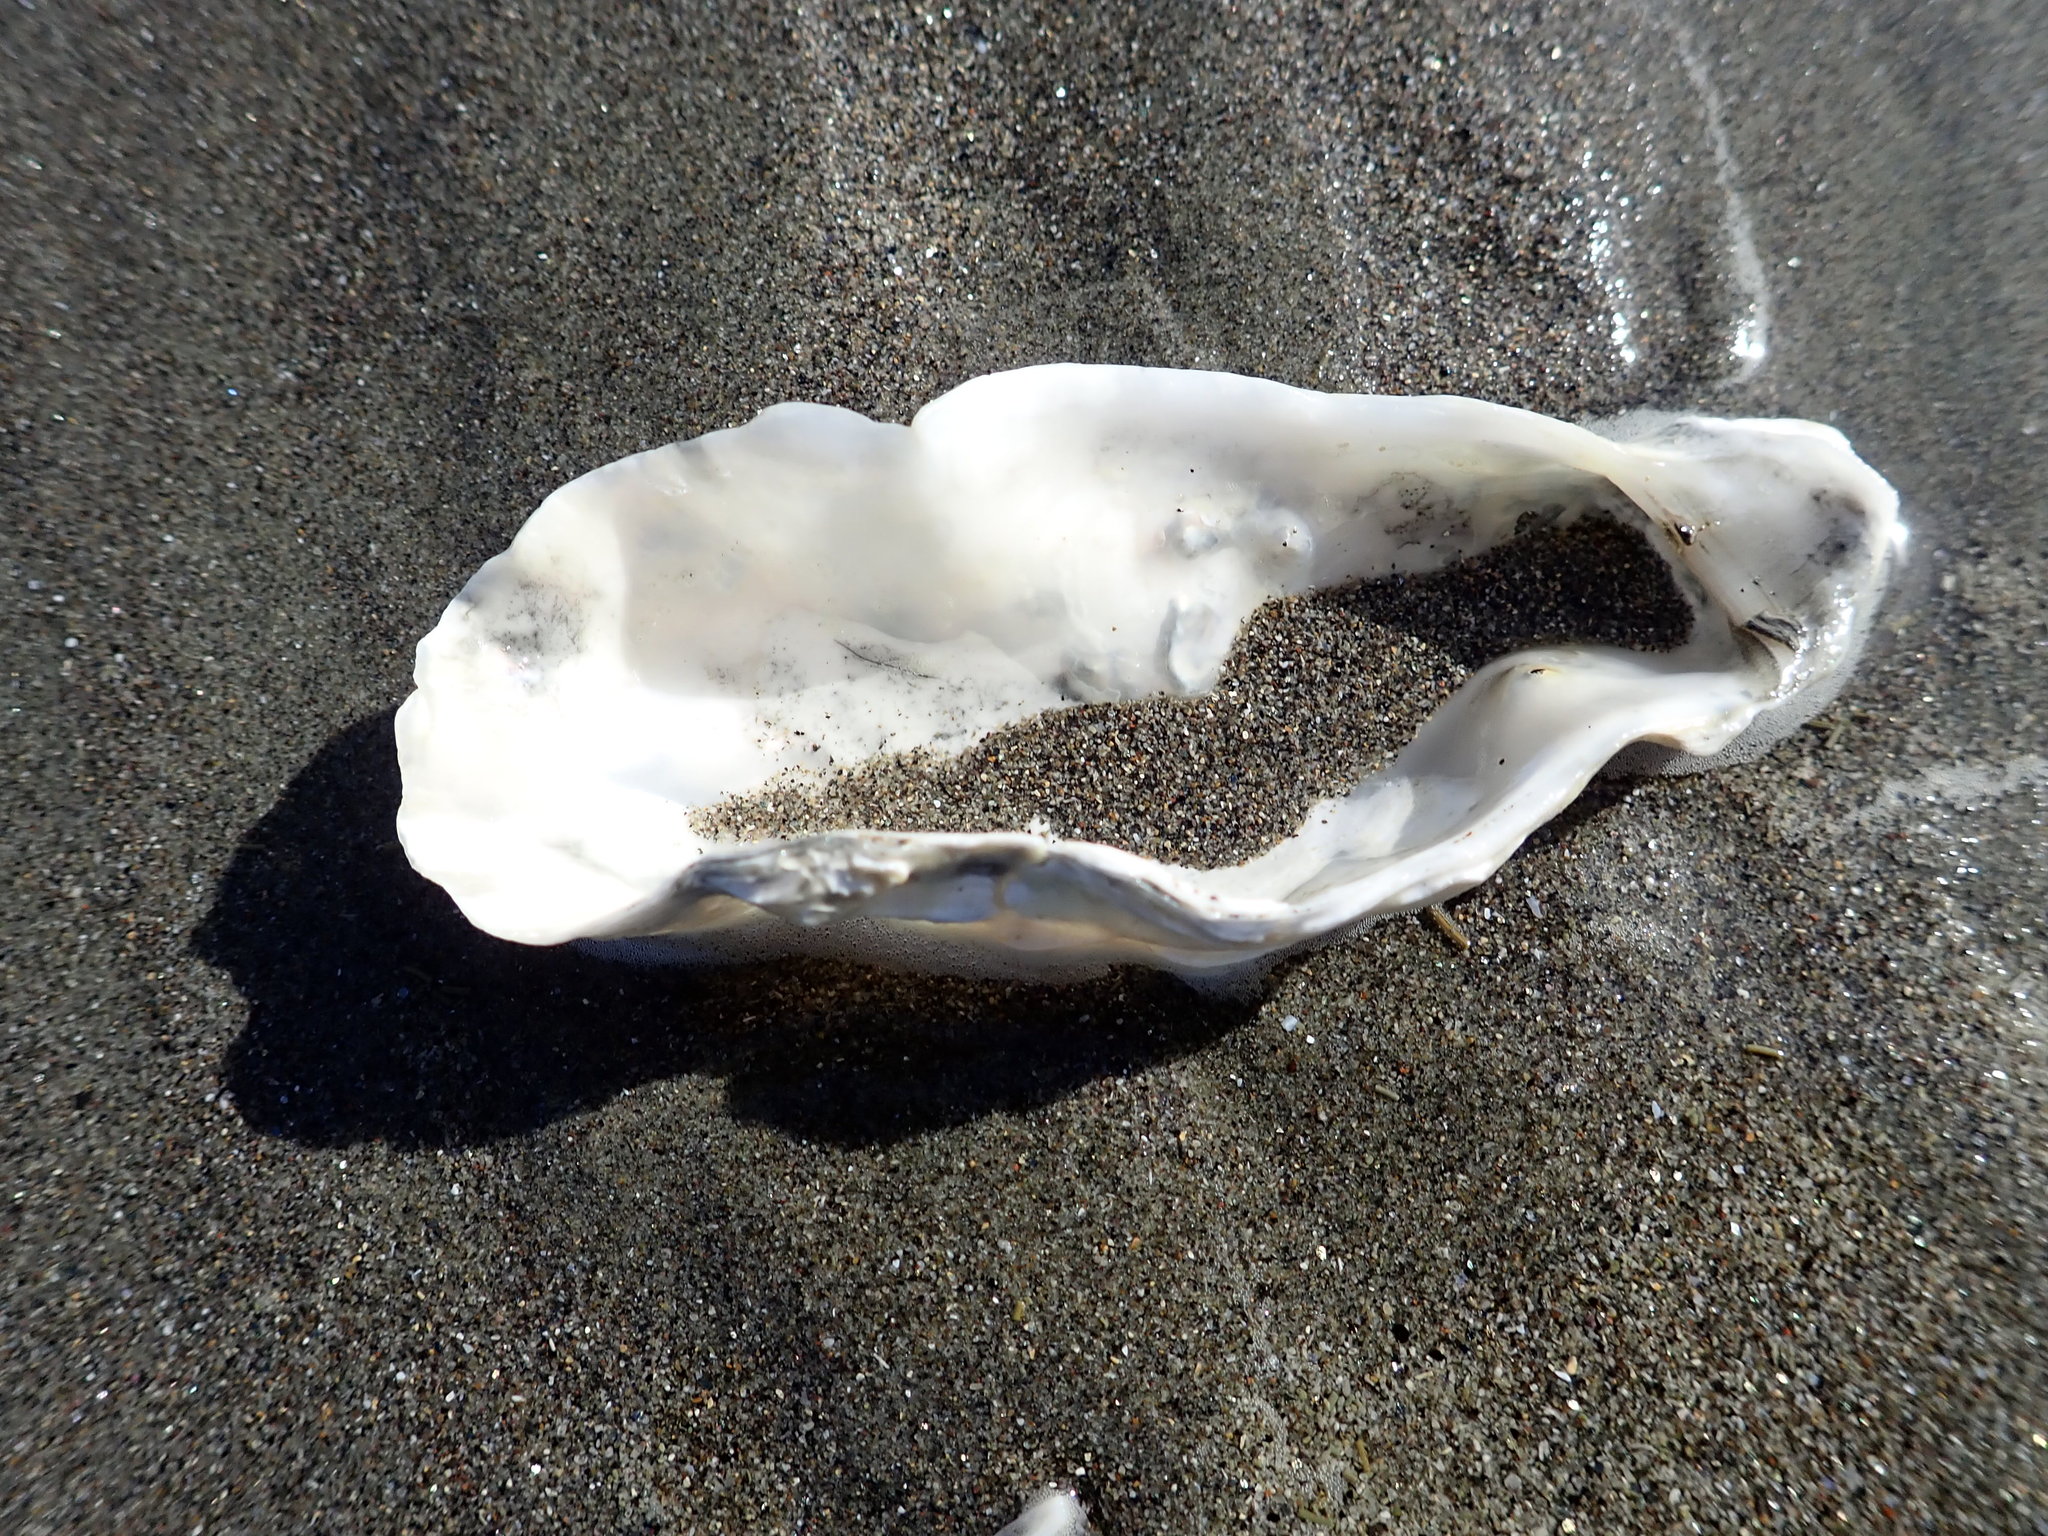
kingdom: Animalia
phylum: Mollusca
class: Bivalvia
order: Ostreida
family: Ostreidae
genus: Magallana
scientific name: Magallana gigas
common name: Pacific oyster
